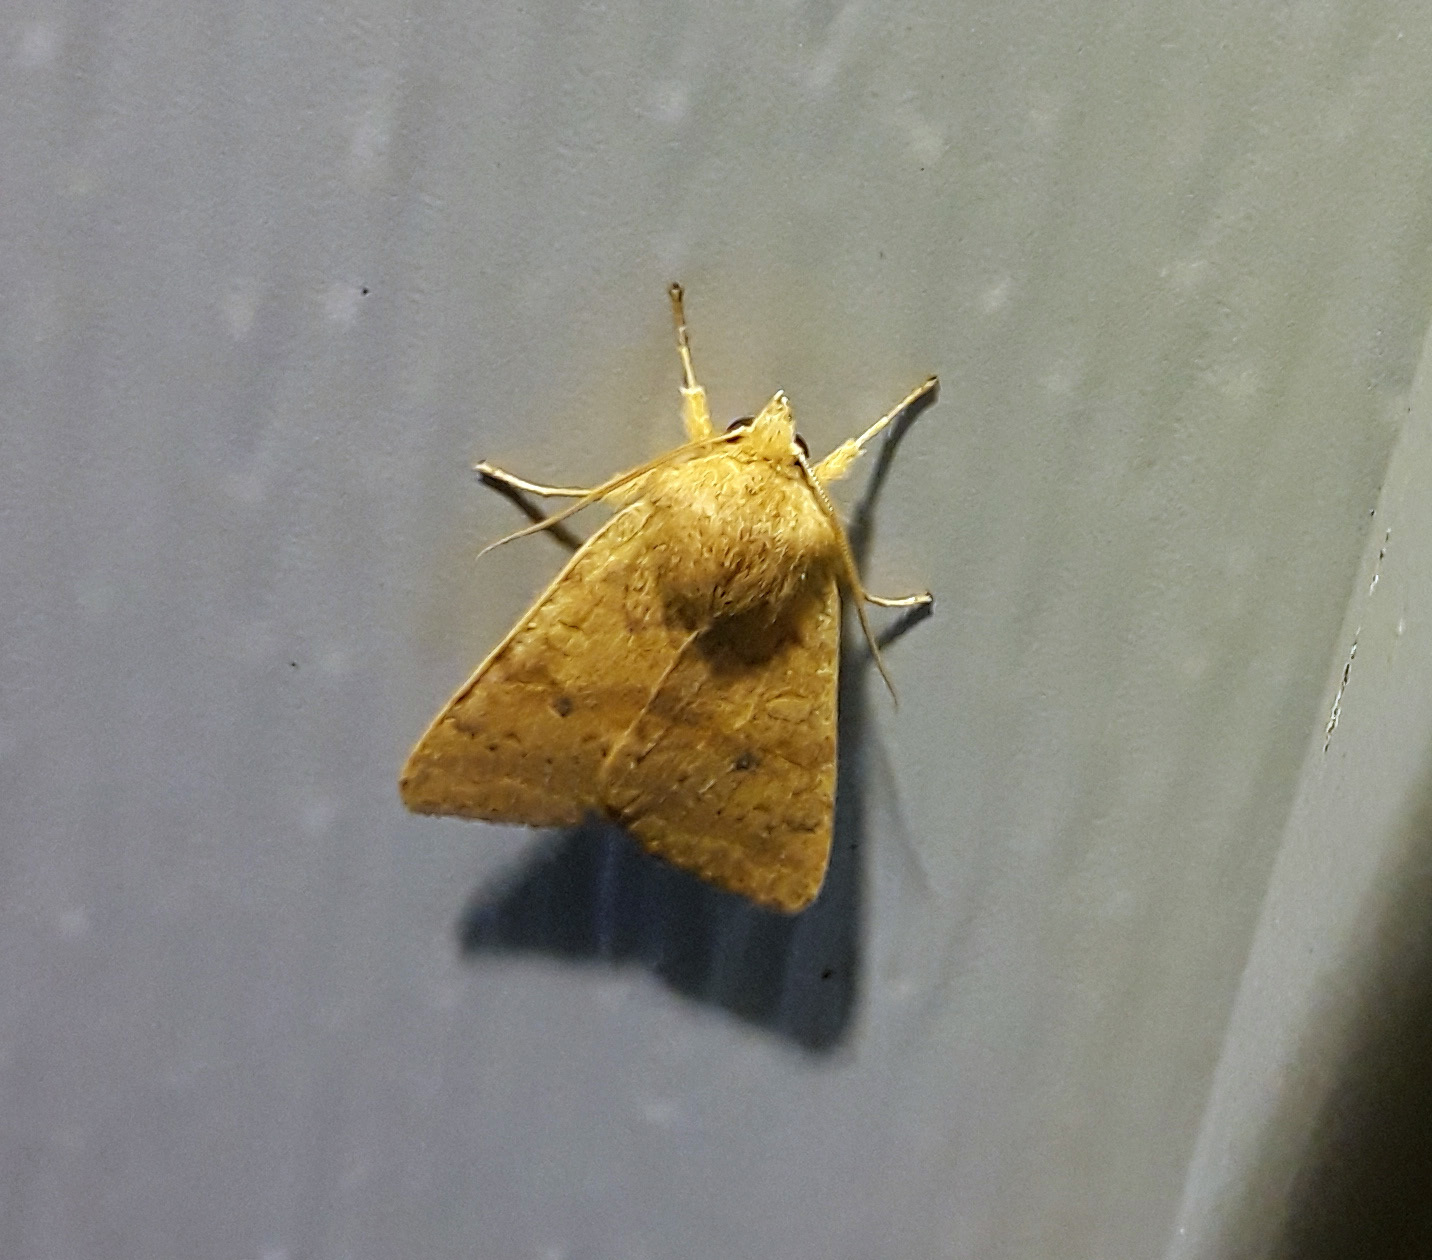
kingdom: Animalia
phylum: Arthropoda
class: Insecta
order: Lepidoptera
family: Noctuidae
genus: Agrochola
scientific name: Agrochola bicolorago
